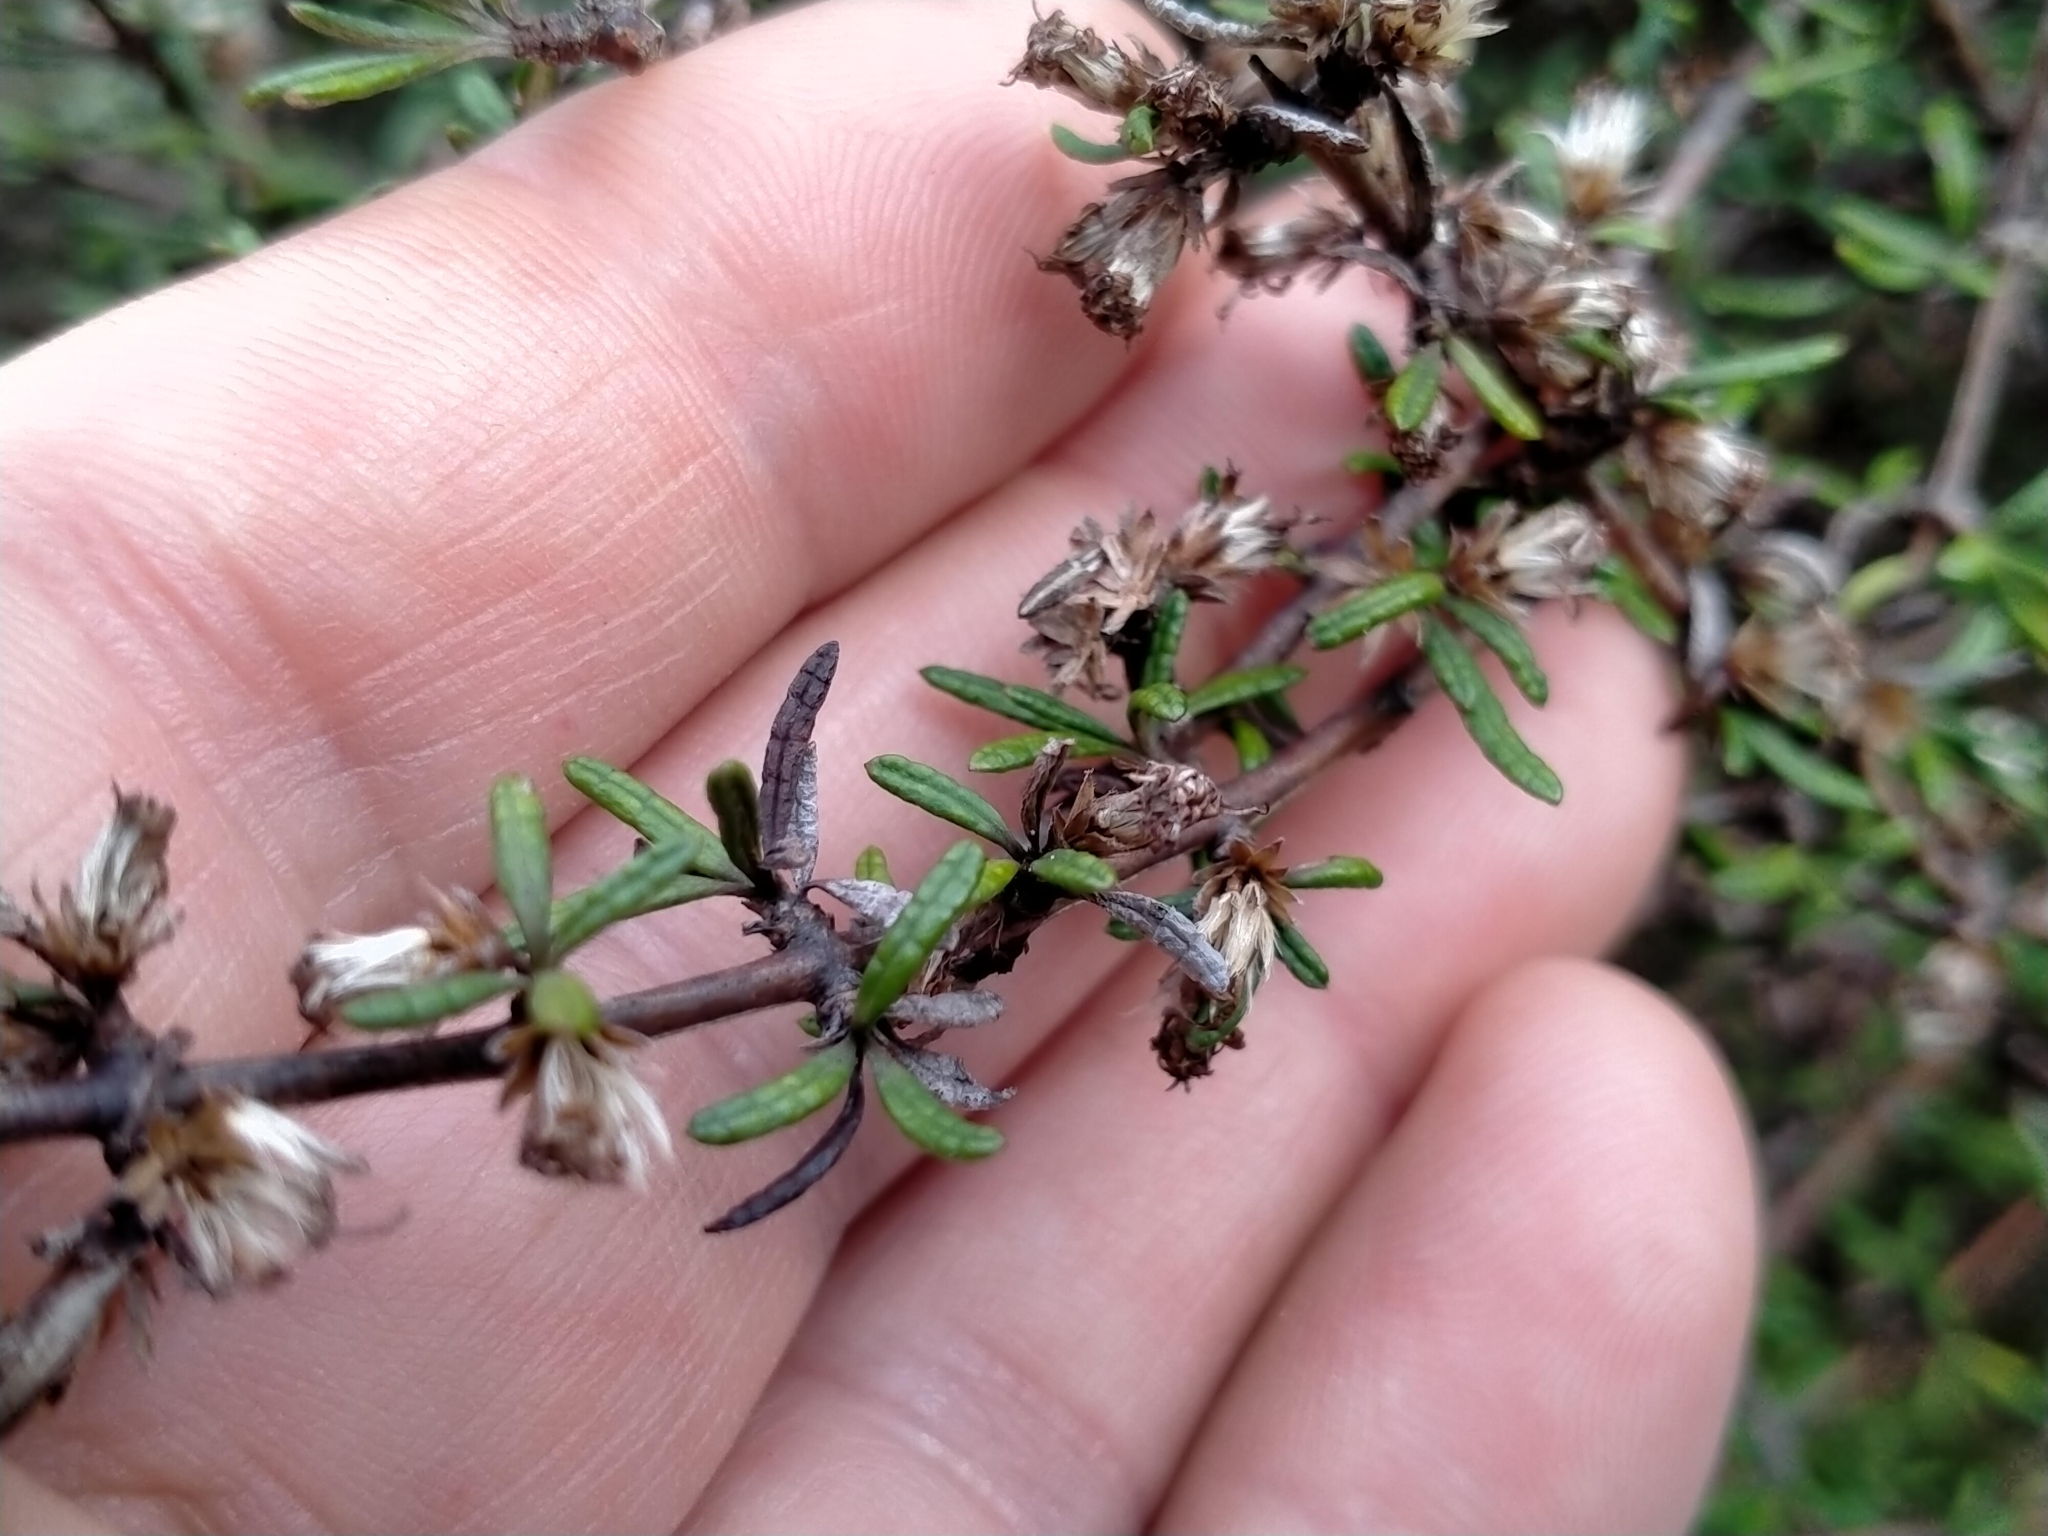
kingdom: Plantae
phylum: Tracheophyta
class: Magnoliopsida
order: Asterales
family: Asteraceae
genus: Olearia
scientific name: Olearia bullata
